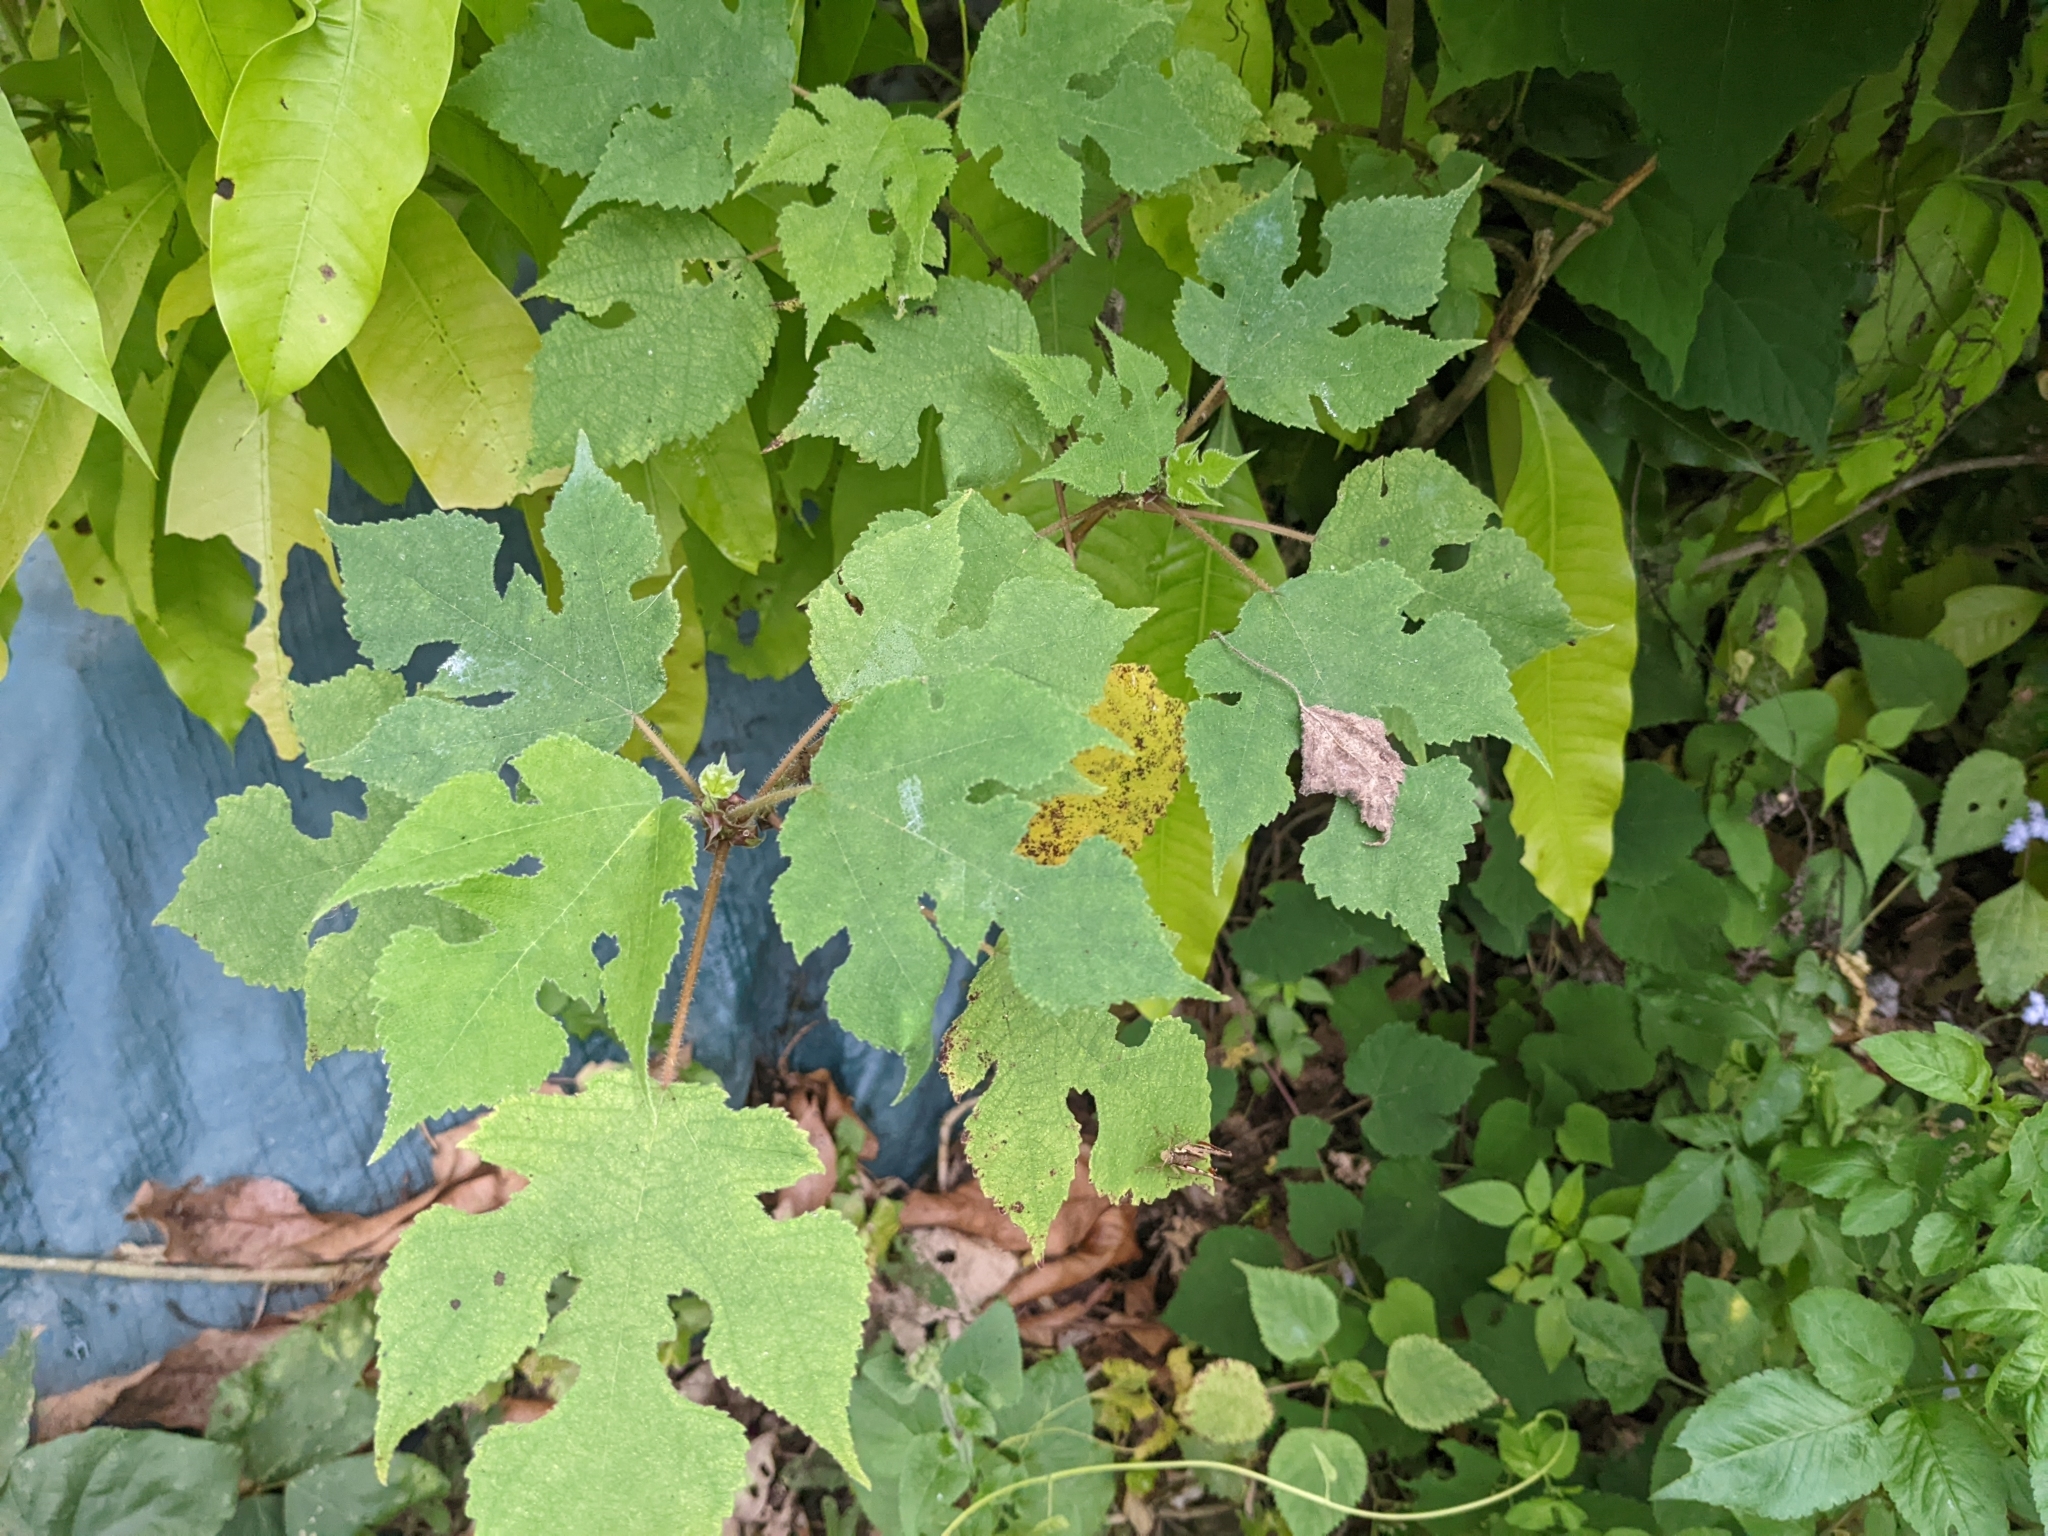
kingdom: Plantae
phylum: Tracheophyta
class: Magnoliopsida
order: Rosales
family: Moraceae
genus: Broussonetia
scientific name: Broussonetia papyrifera
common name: Paper mulberry
